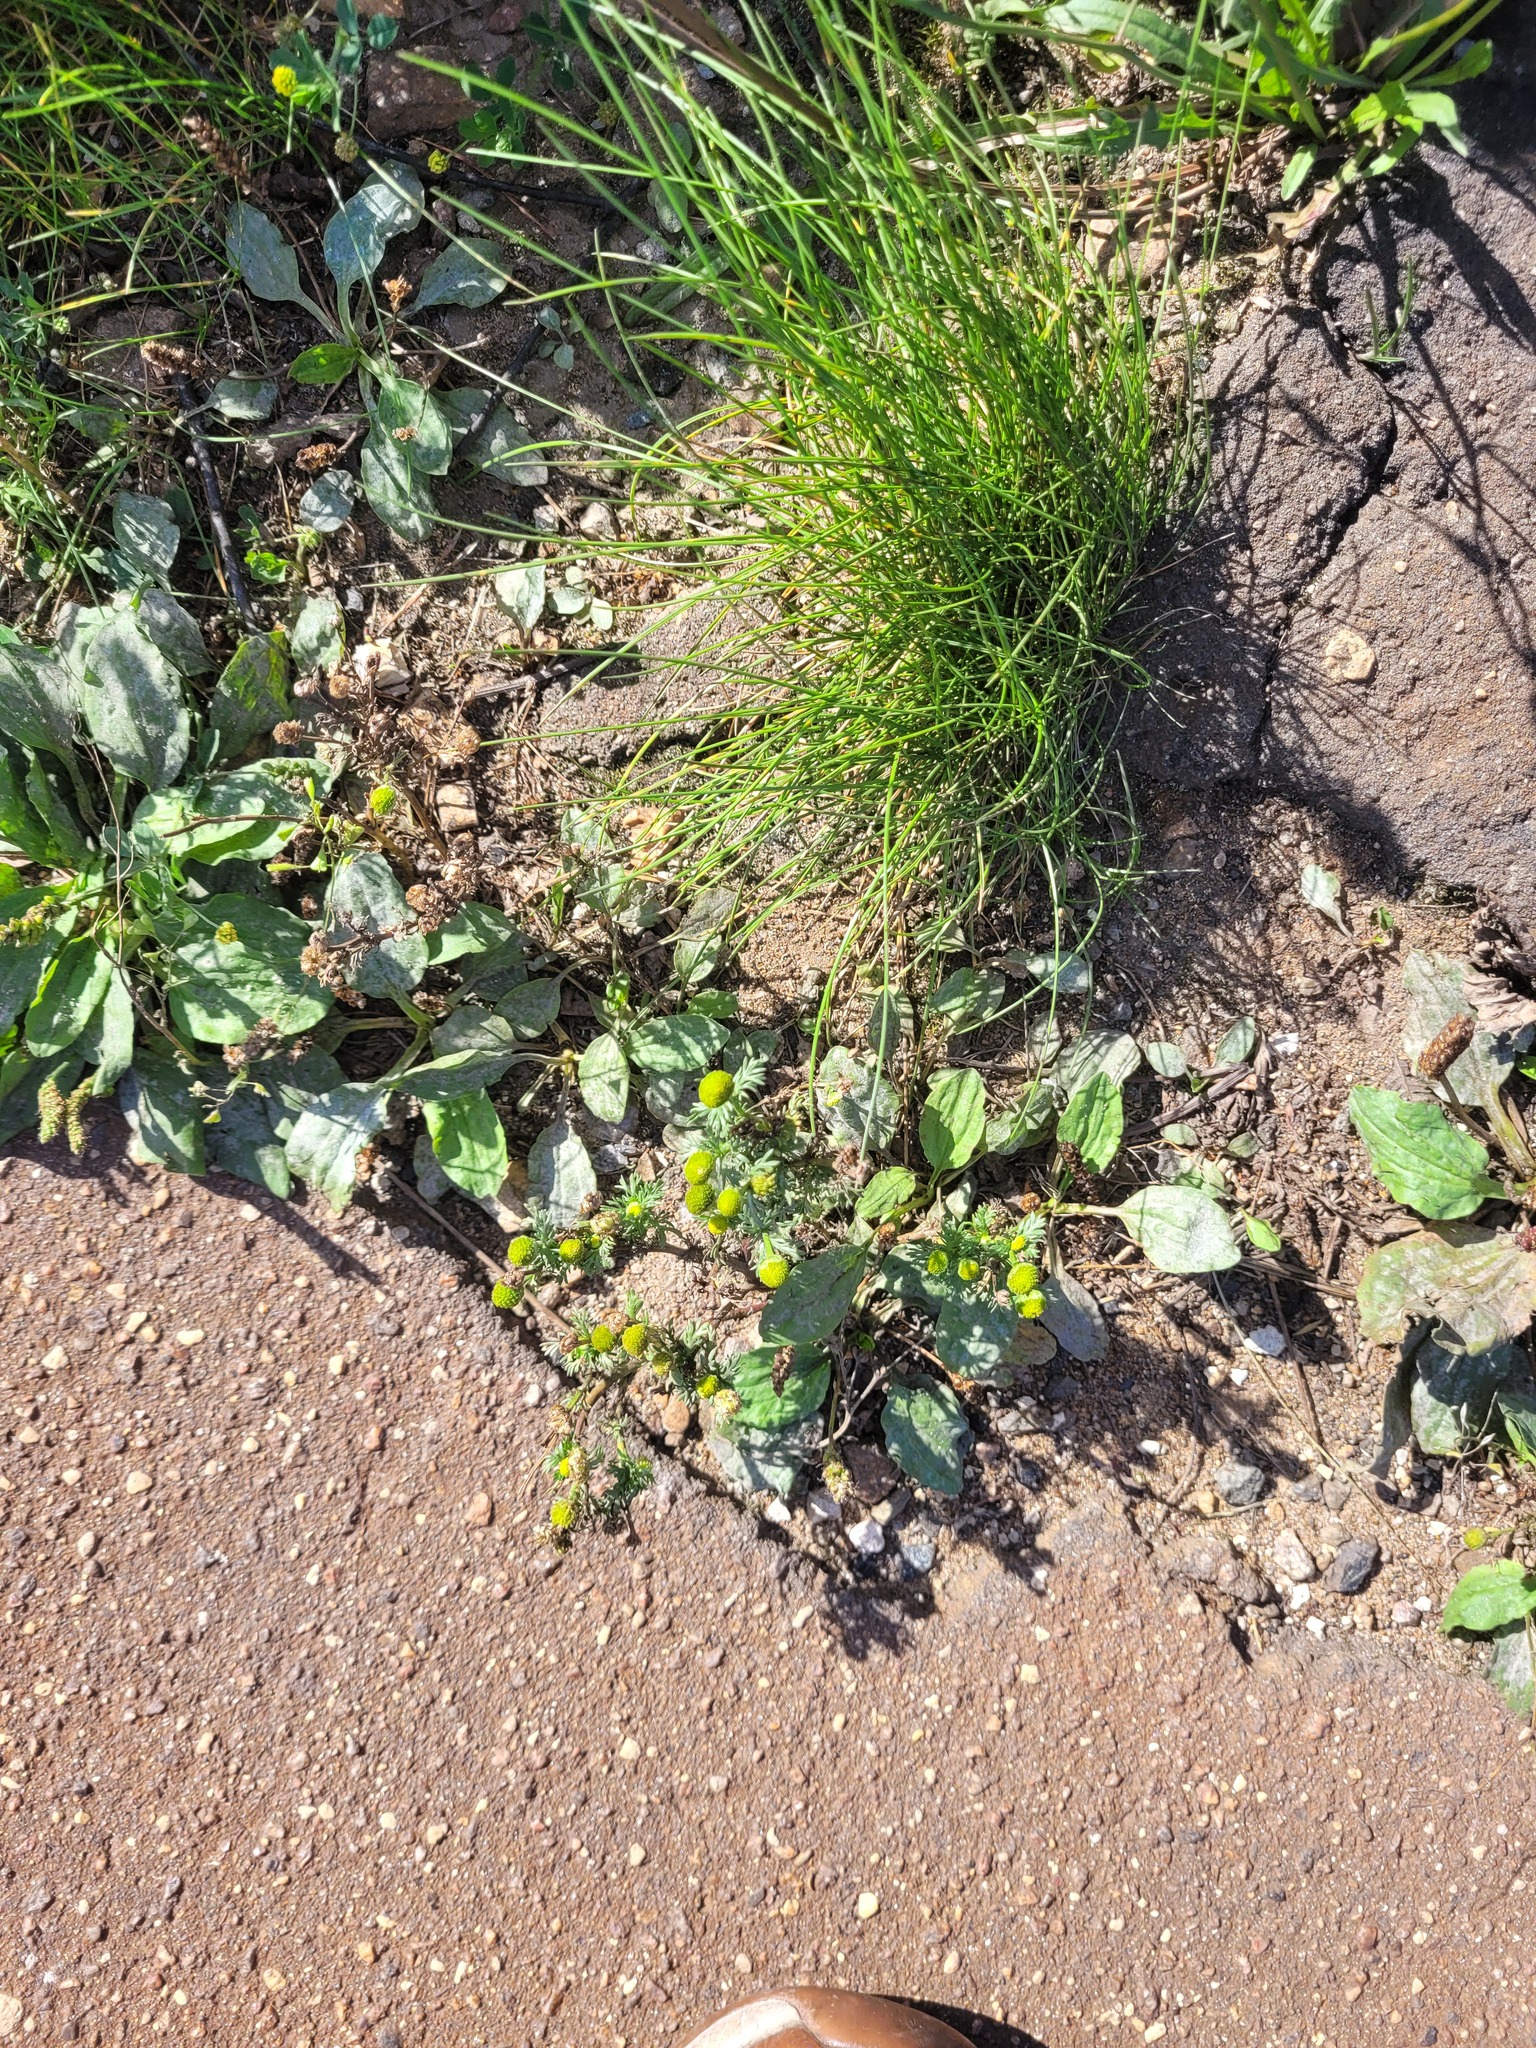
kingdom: Plantae
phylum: Tracheophyta
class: Magnoliopsida
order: Asterales
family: Asteraceae
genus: Matricaria
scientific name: Matricaria discoidea
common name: Disc mayweed
